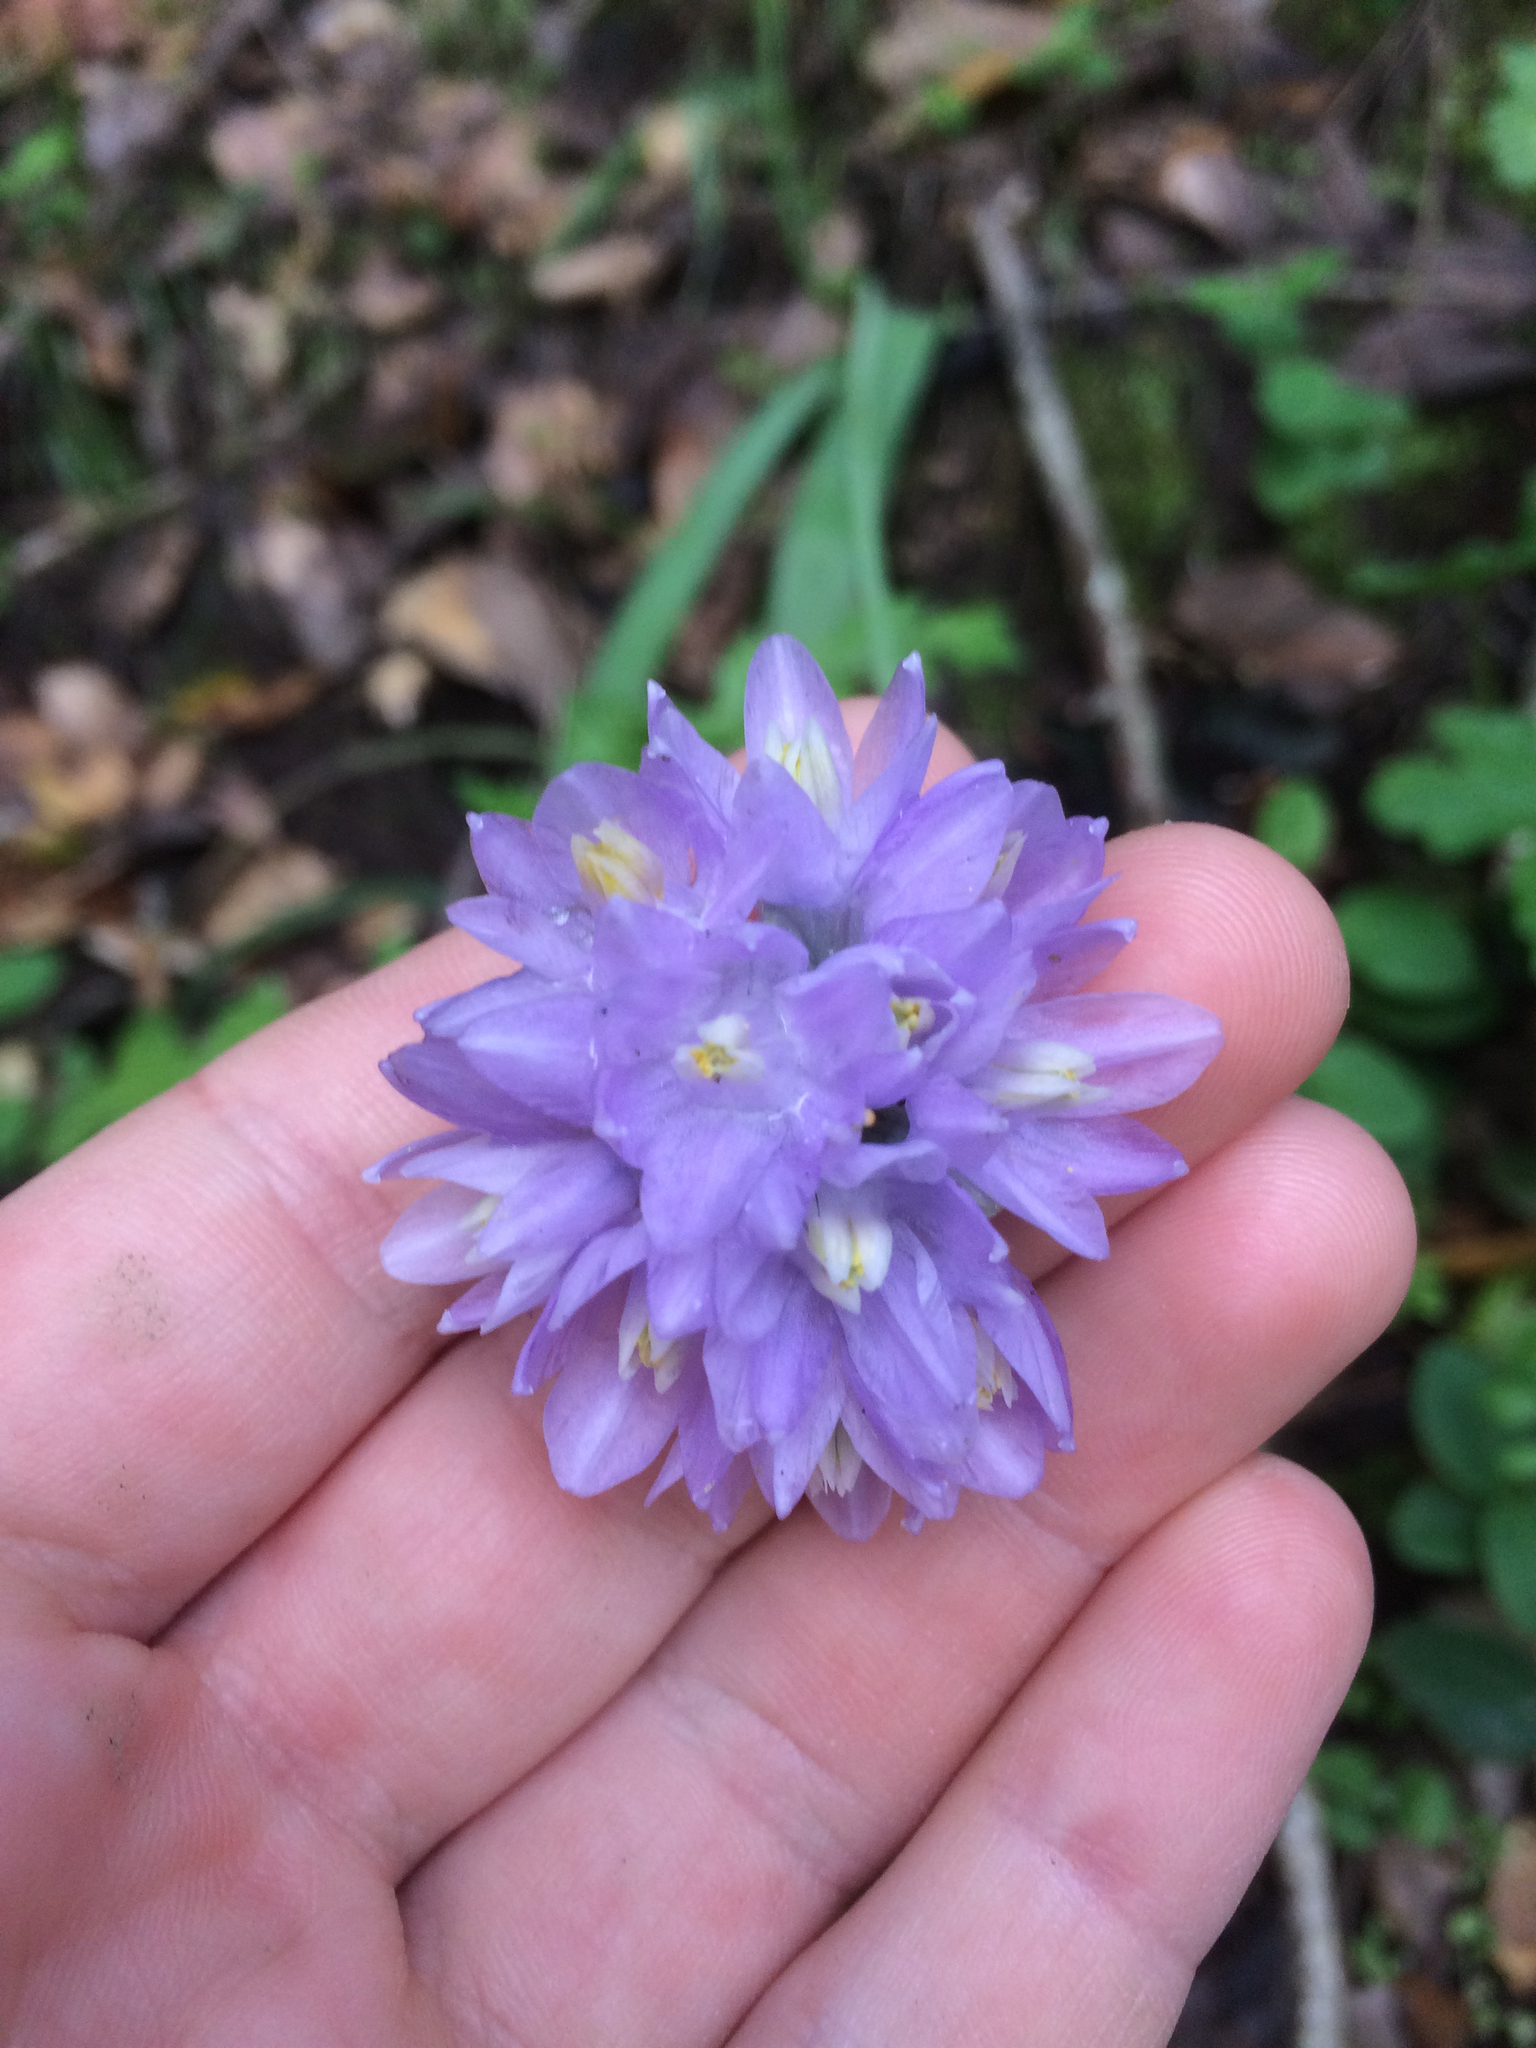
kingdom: Plantae
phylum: Tracheophyta
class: Liliopsida
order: Asparagales
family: Asparagaceae
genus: Dipterostemon
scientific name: Dipterostemon capitatus
